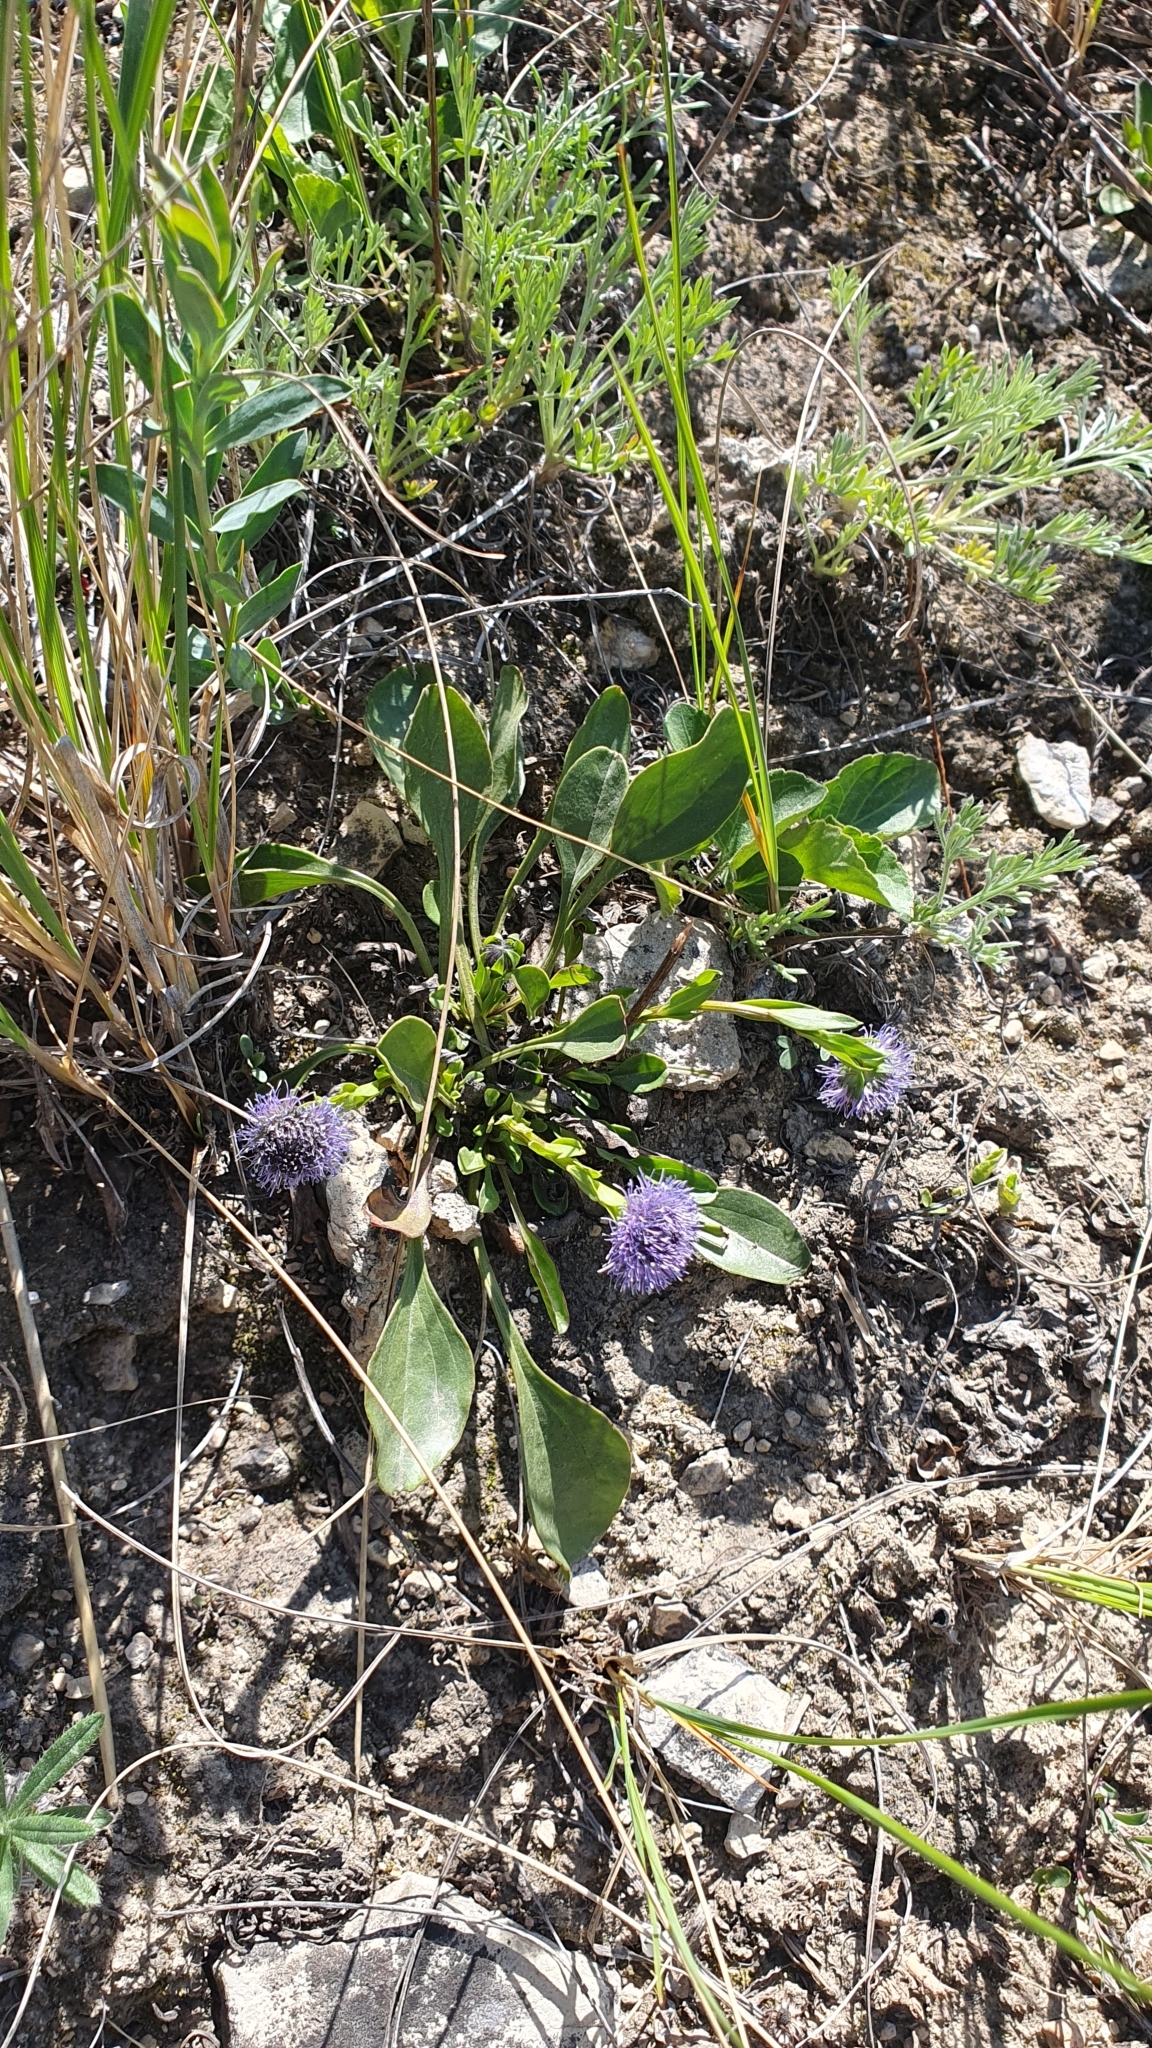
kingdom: Plantae
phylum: Tracheophyta
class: Magnoliopsida
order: Lamiales
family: Plantaginaceae
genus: Globularia
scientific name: Globularia bisnagarica
